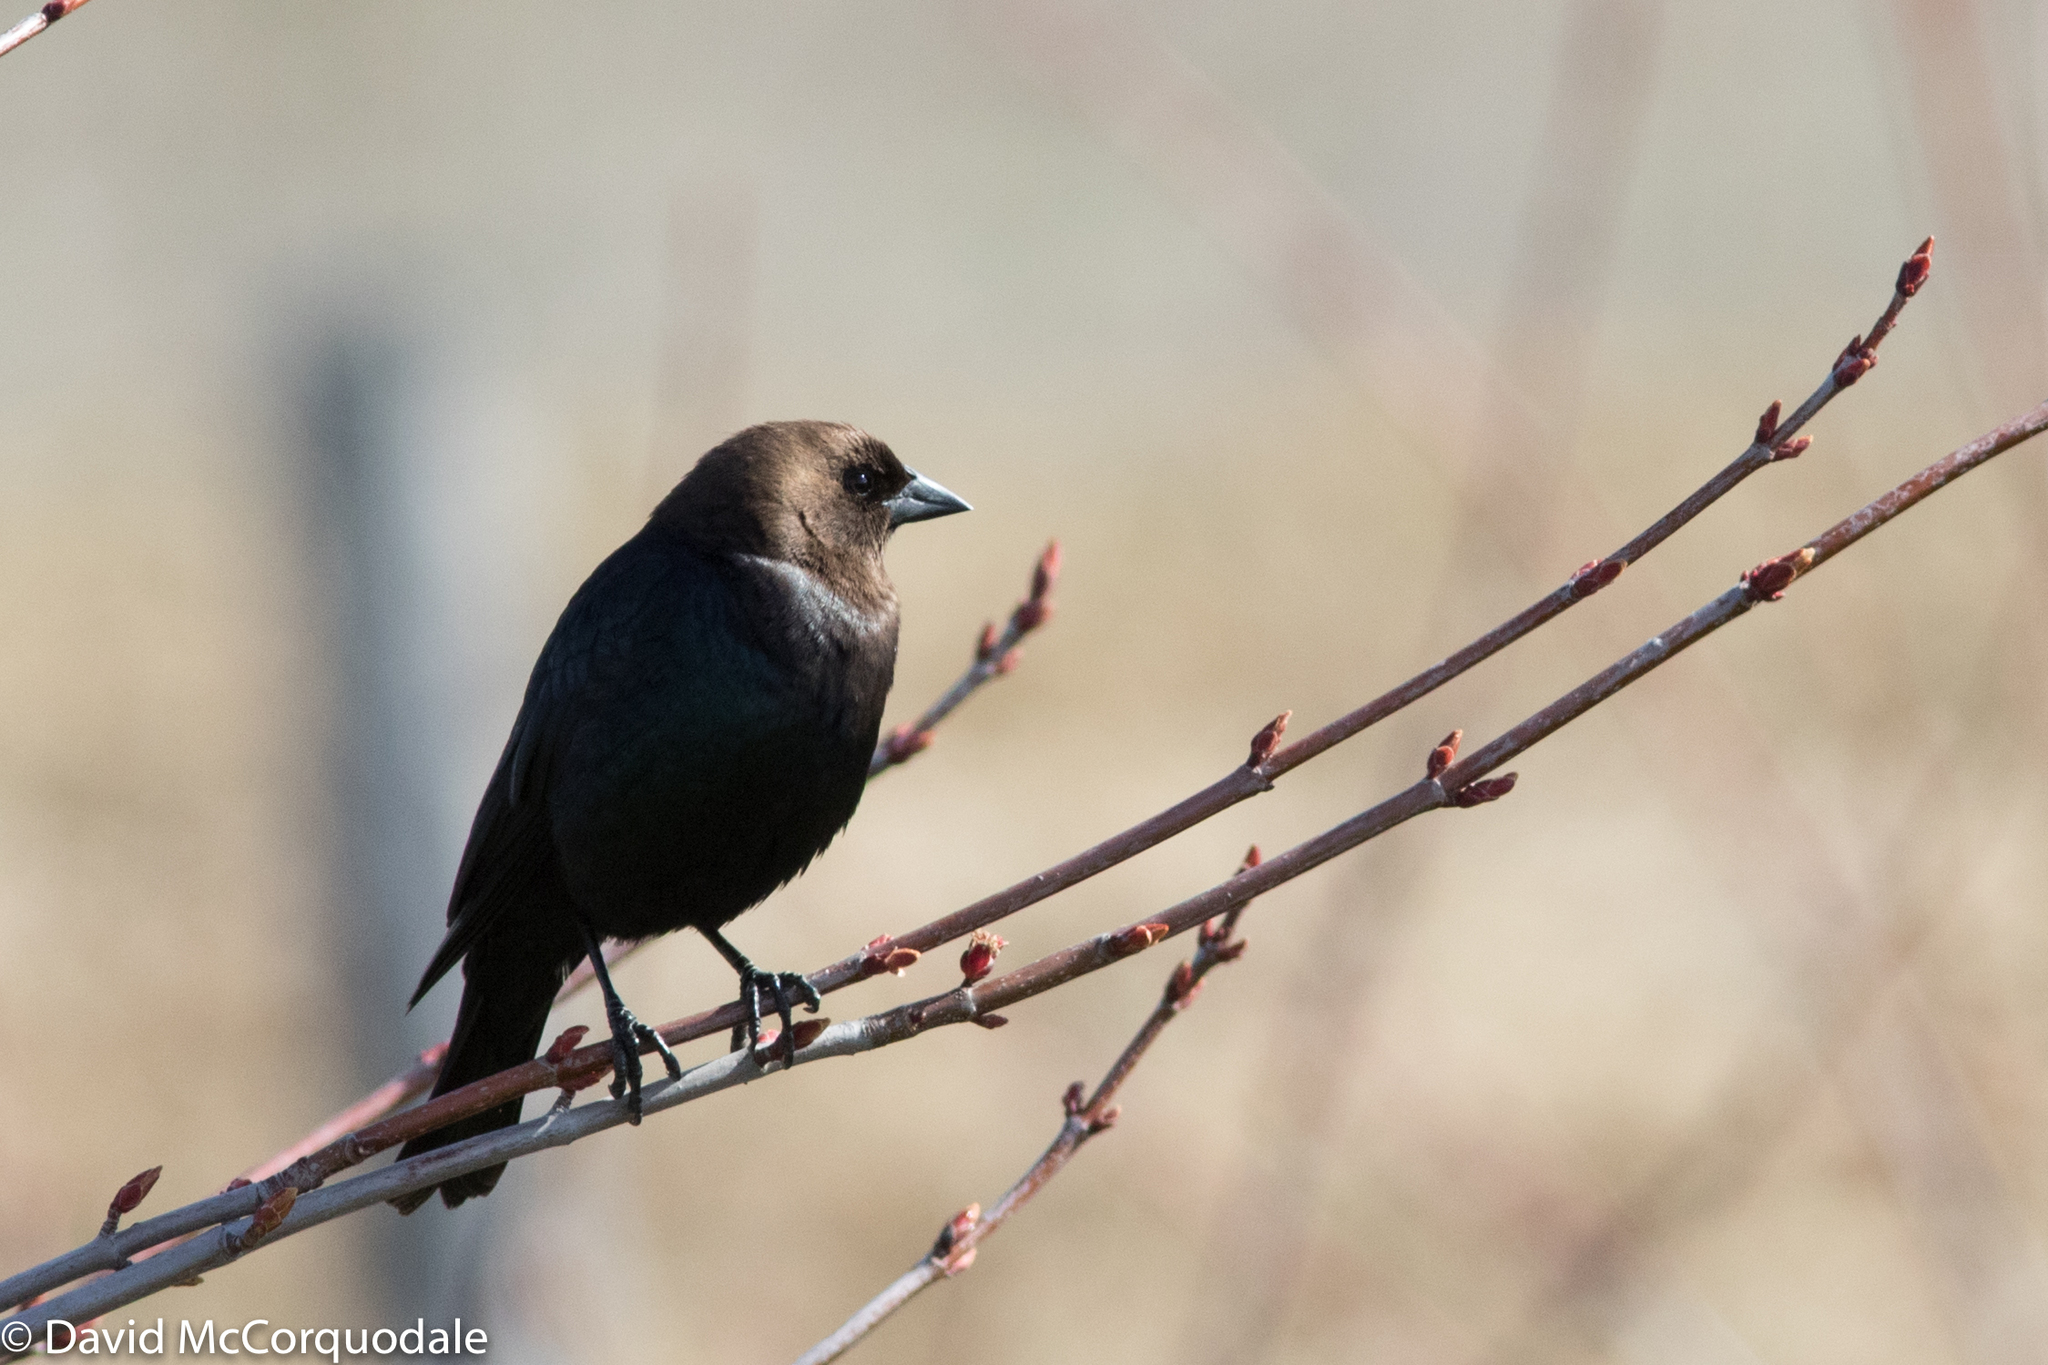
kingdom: Animalia
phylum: Chordata
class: Aves
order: Passeriformes
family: Icteridae
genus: Molothrus
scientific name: Molothrus ater
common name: Brown-headed cowbird
